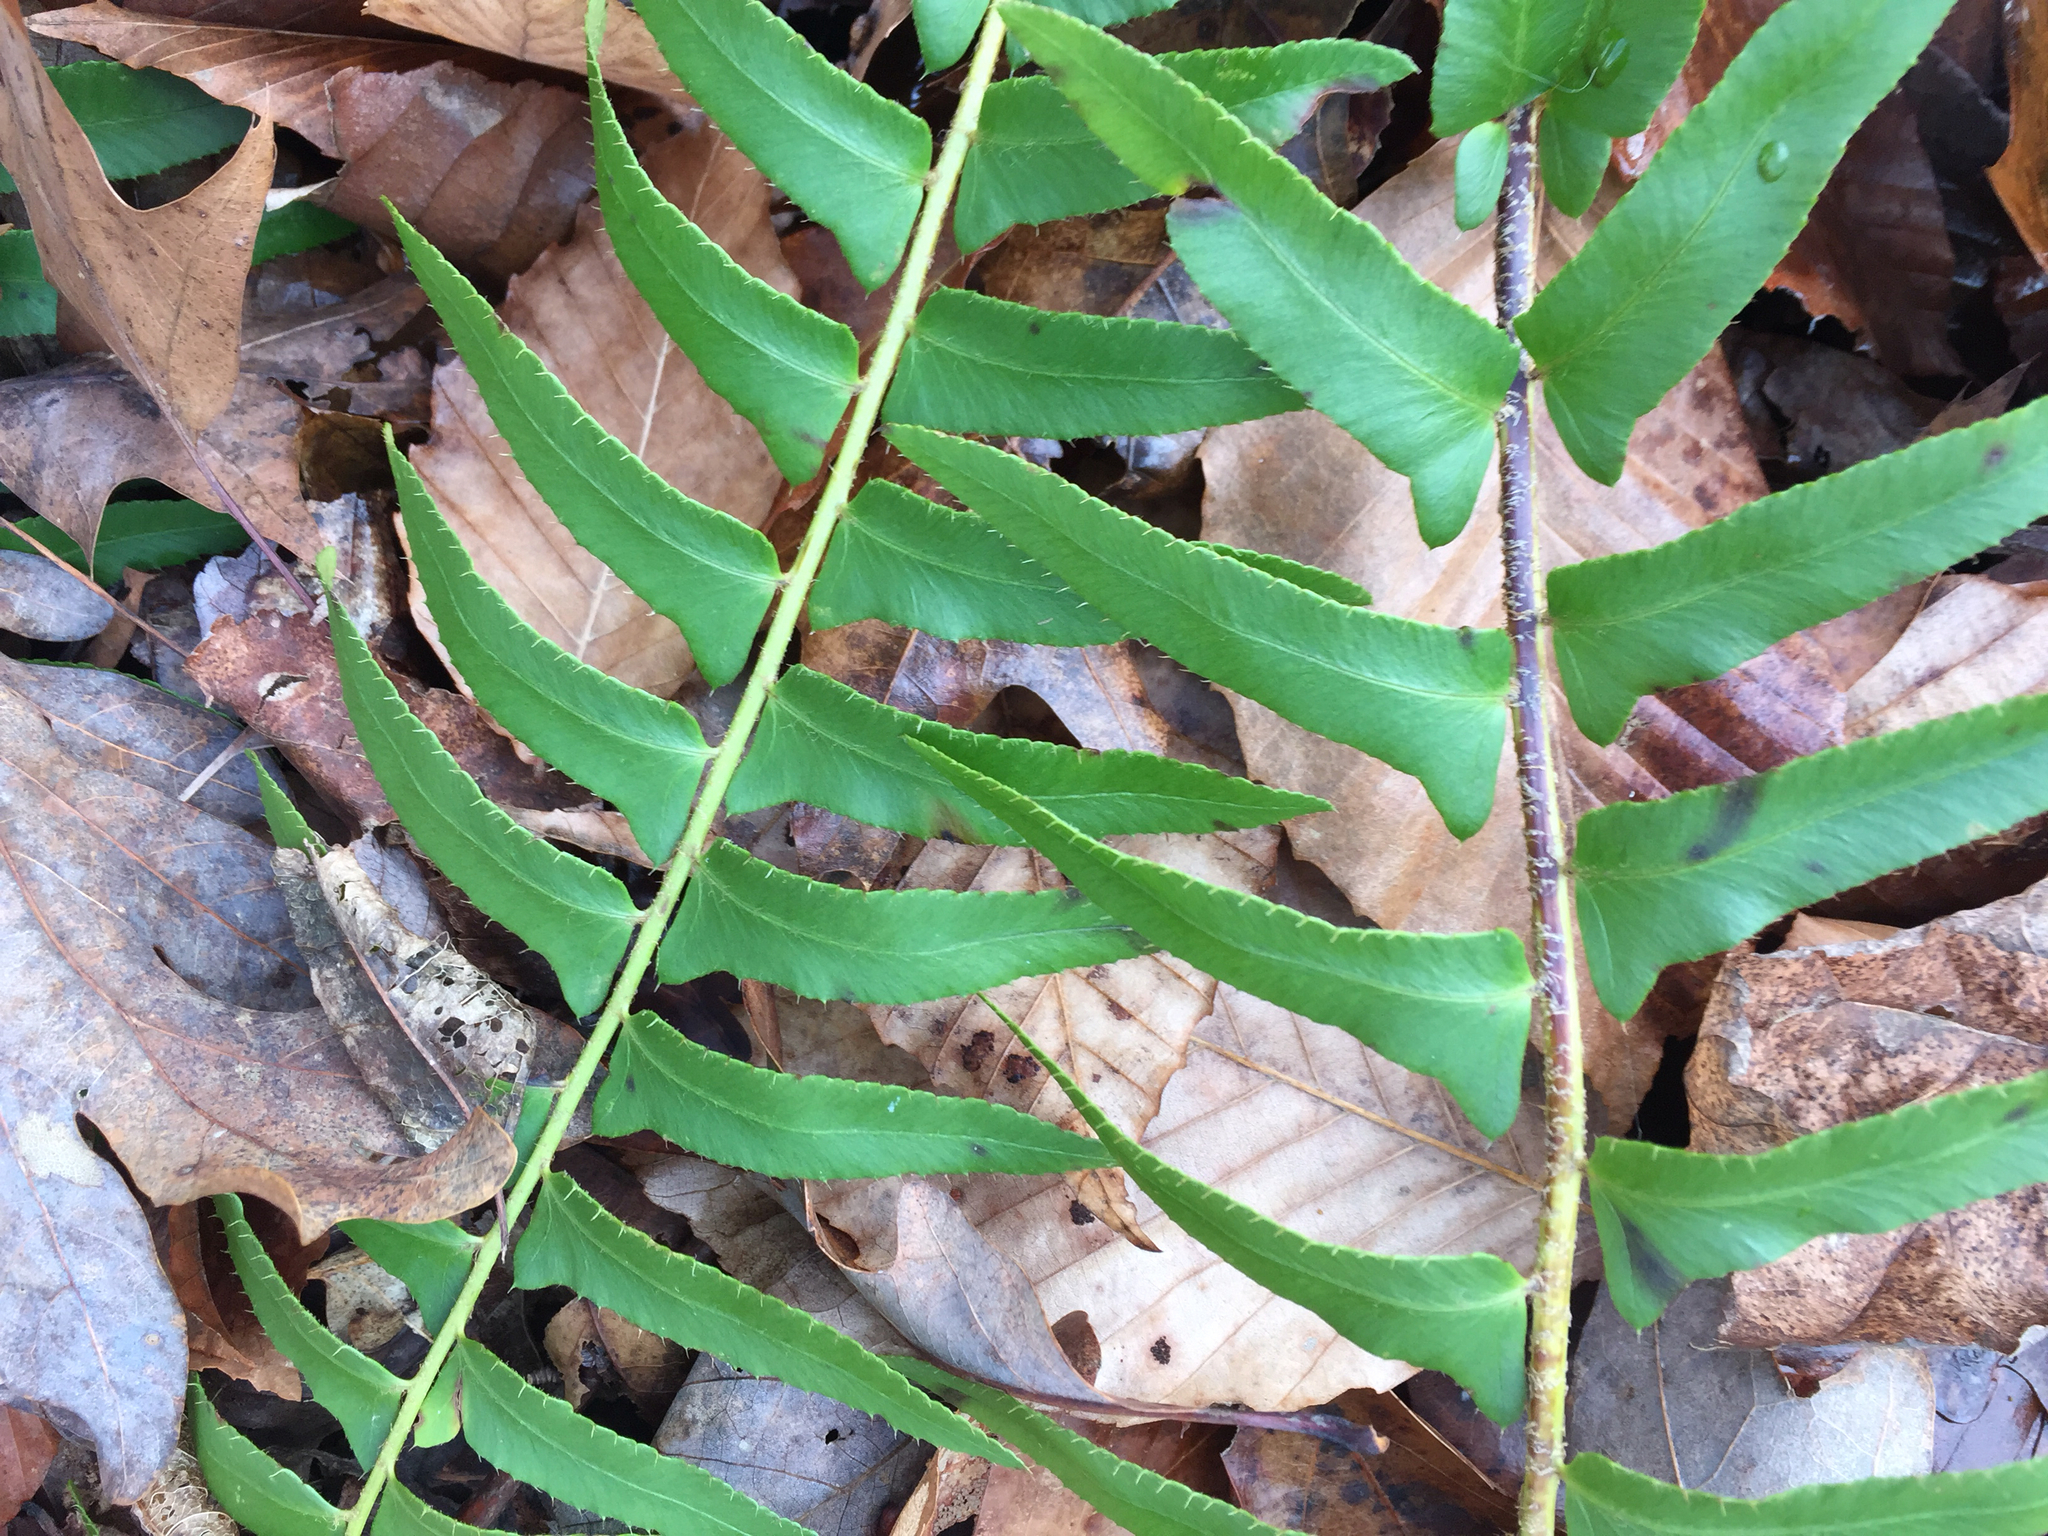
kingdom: Plantae
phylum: Tracheophyta
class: Polypodiopsida
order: Polypodiales
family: Dryopteridaceae
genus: Polystichum
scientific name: Polystichum acrostichoides
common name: Christmas fern
